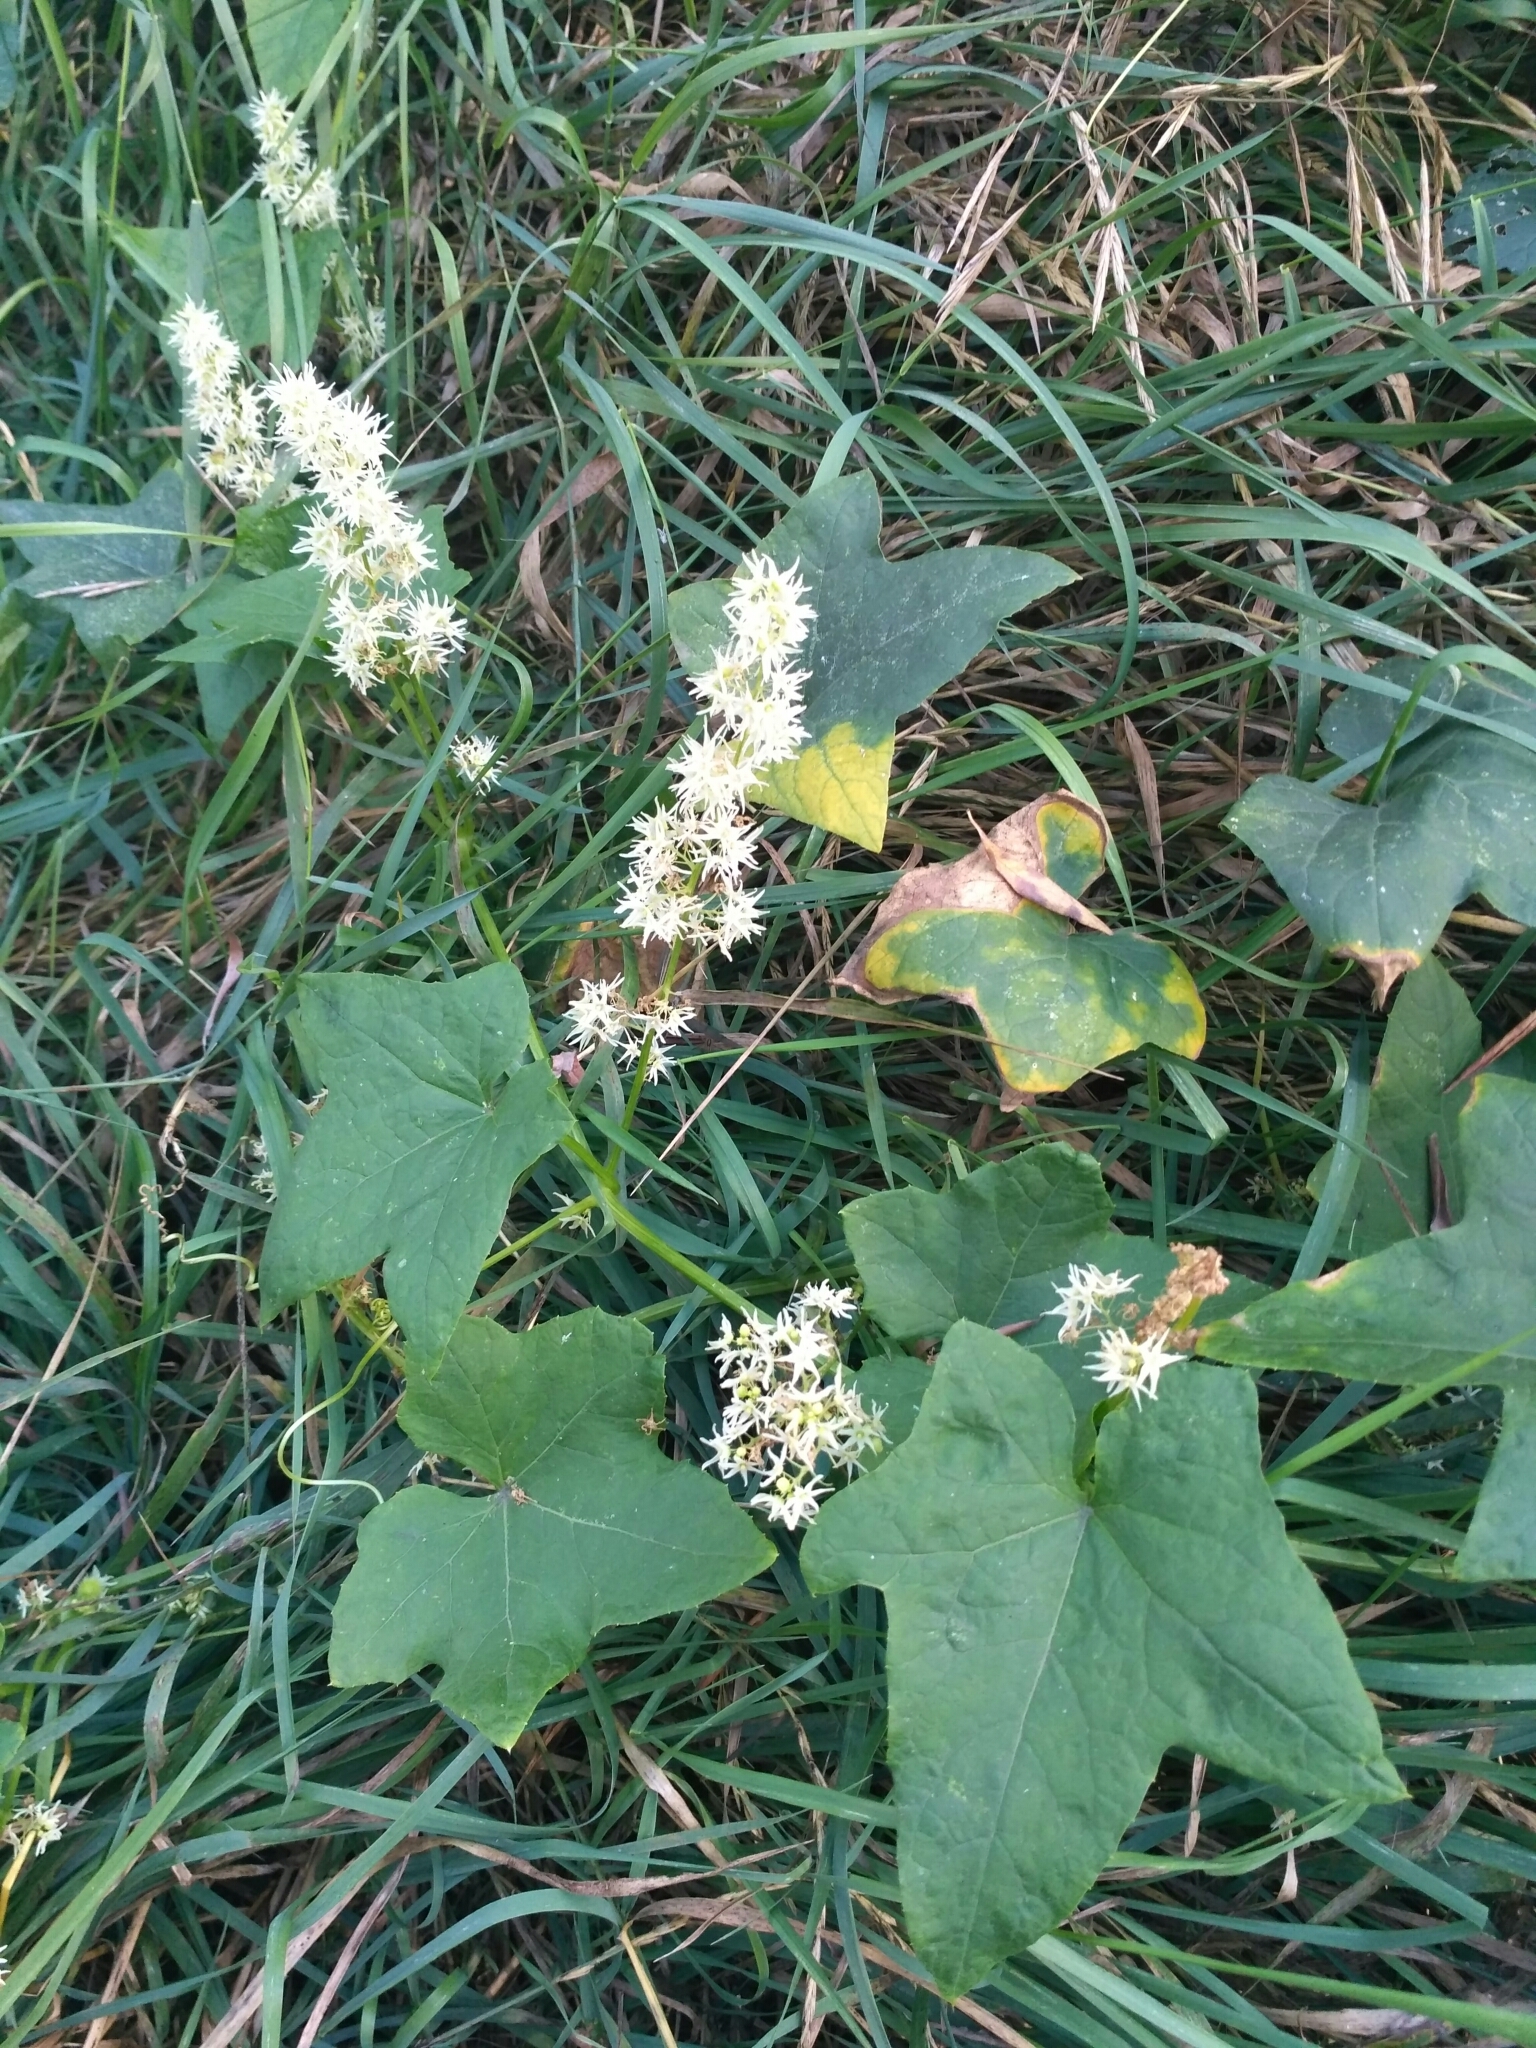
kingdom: Plantae
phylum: Tracheophyta
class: Magnoliopsida
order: Cucurbitales
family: Cucurbitaceae
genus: Echinocystis
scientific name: Echinocystis lobata
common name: Wild cucumber
